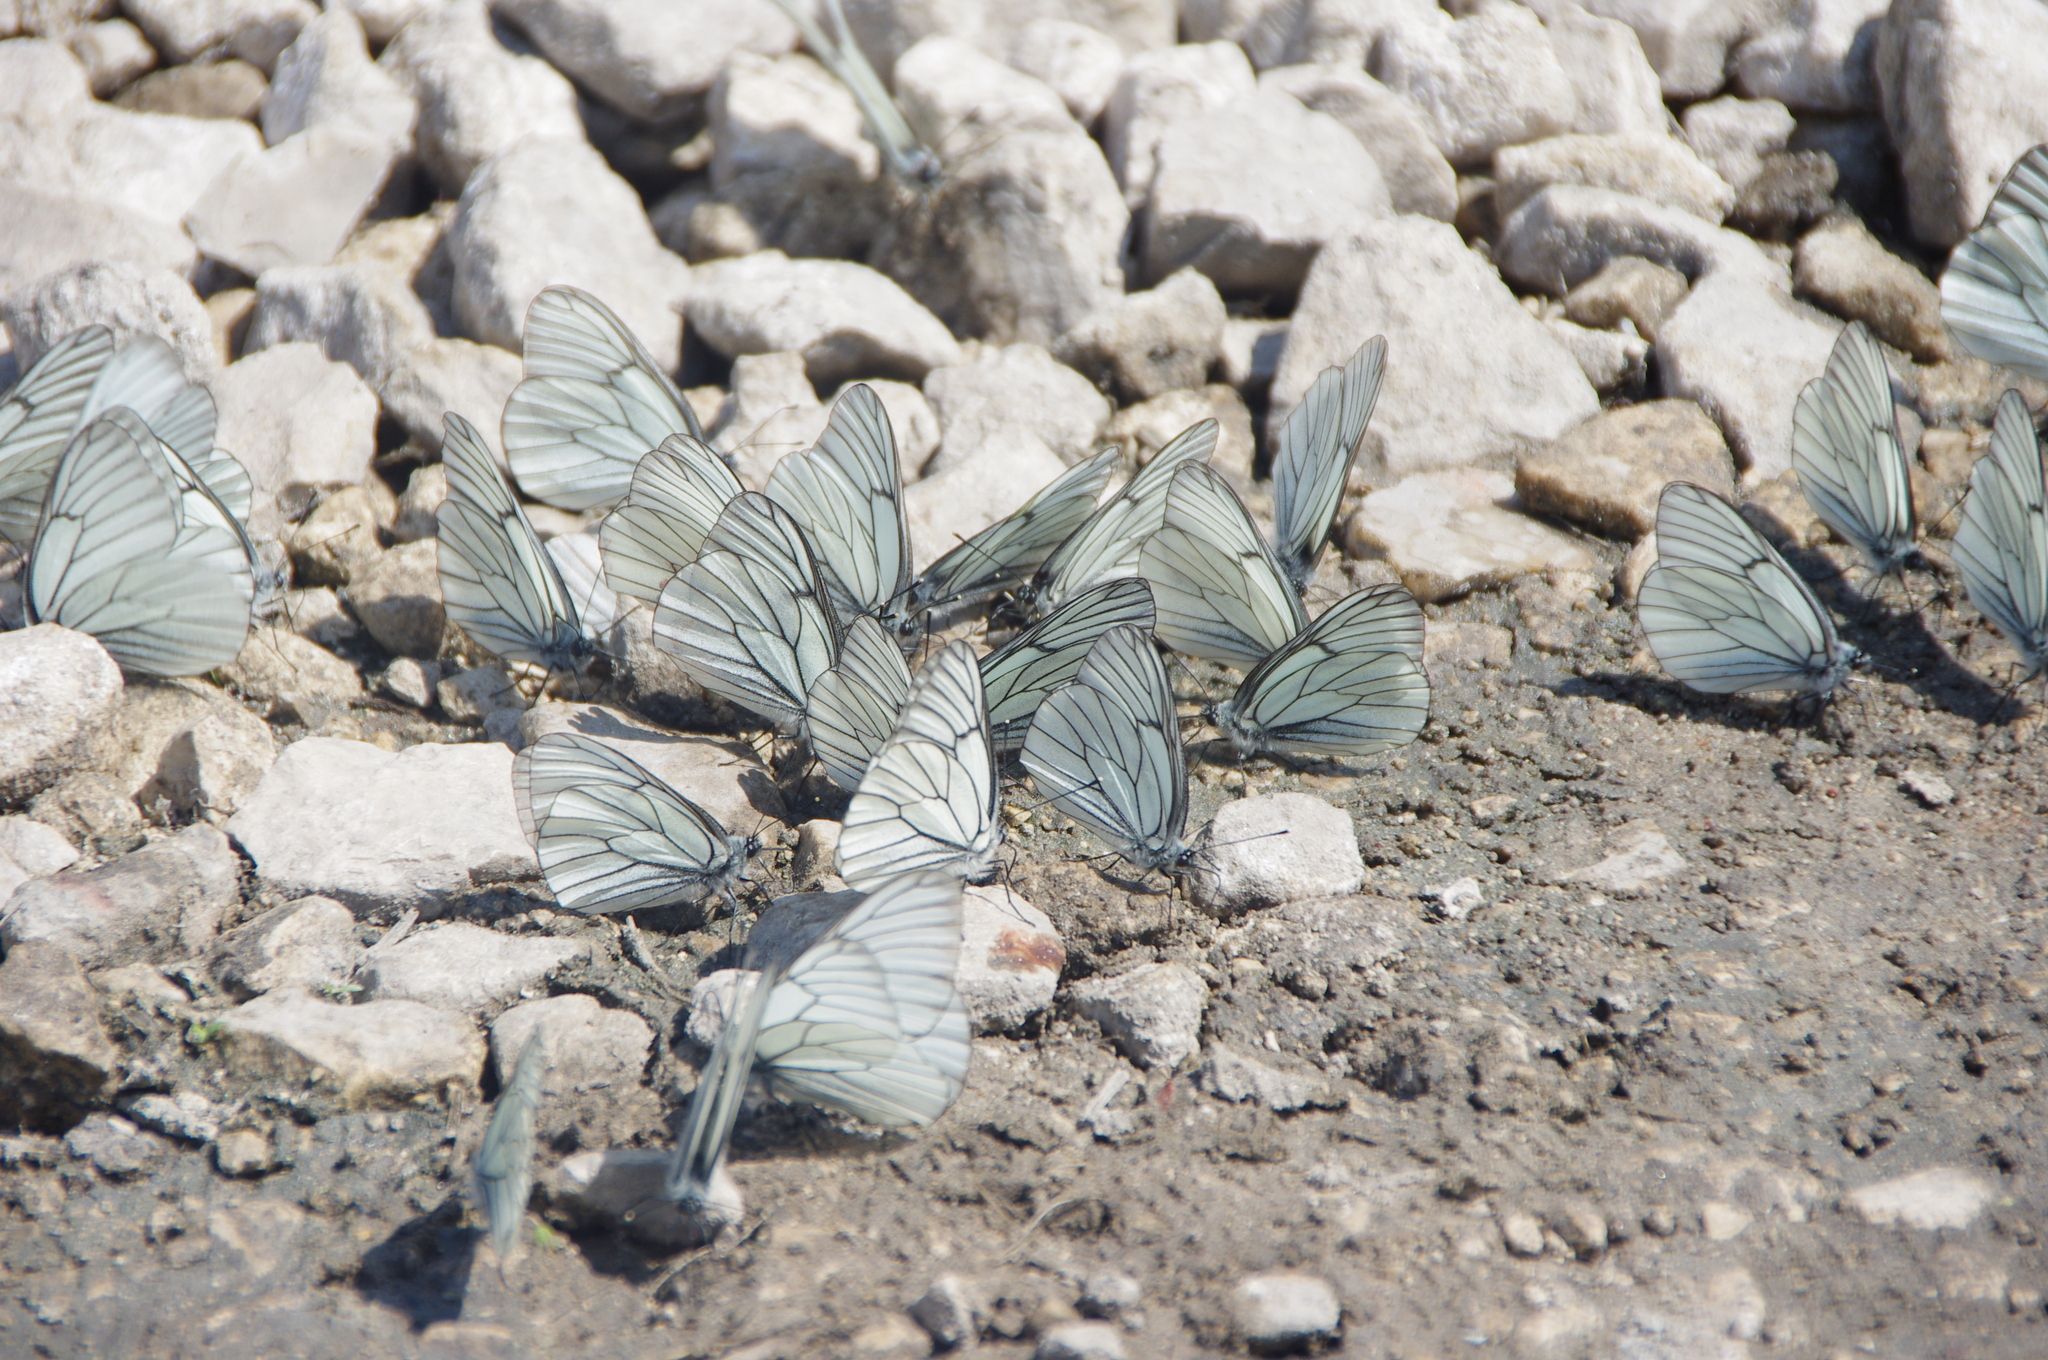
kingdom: Animalia
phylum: Arthropoda
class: Insecta
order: Lepidoptera
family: Pieridae
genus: Aporia
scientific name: Aporia crataegi
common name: Black-veined white
